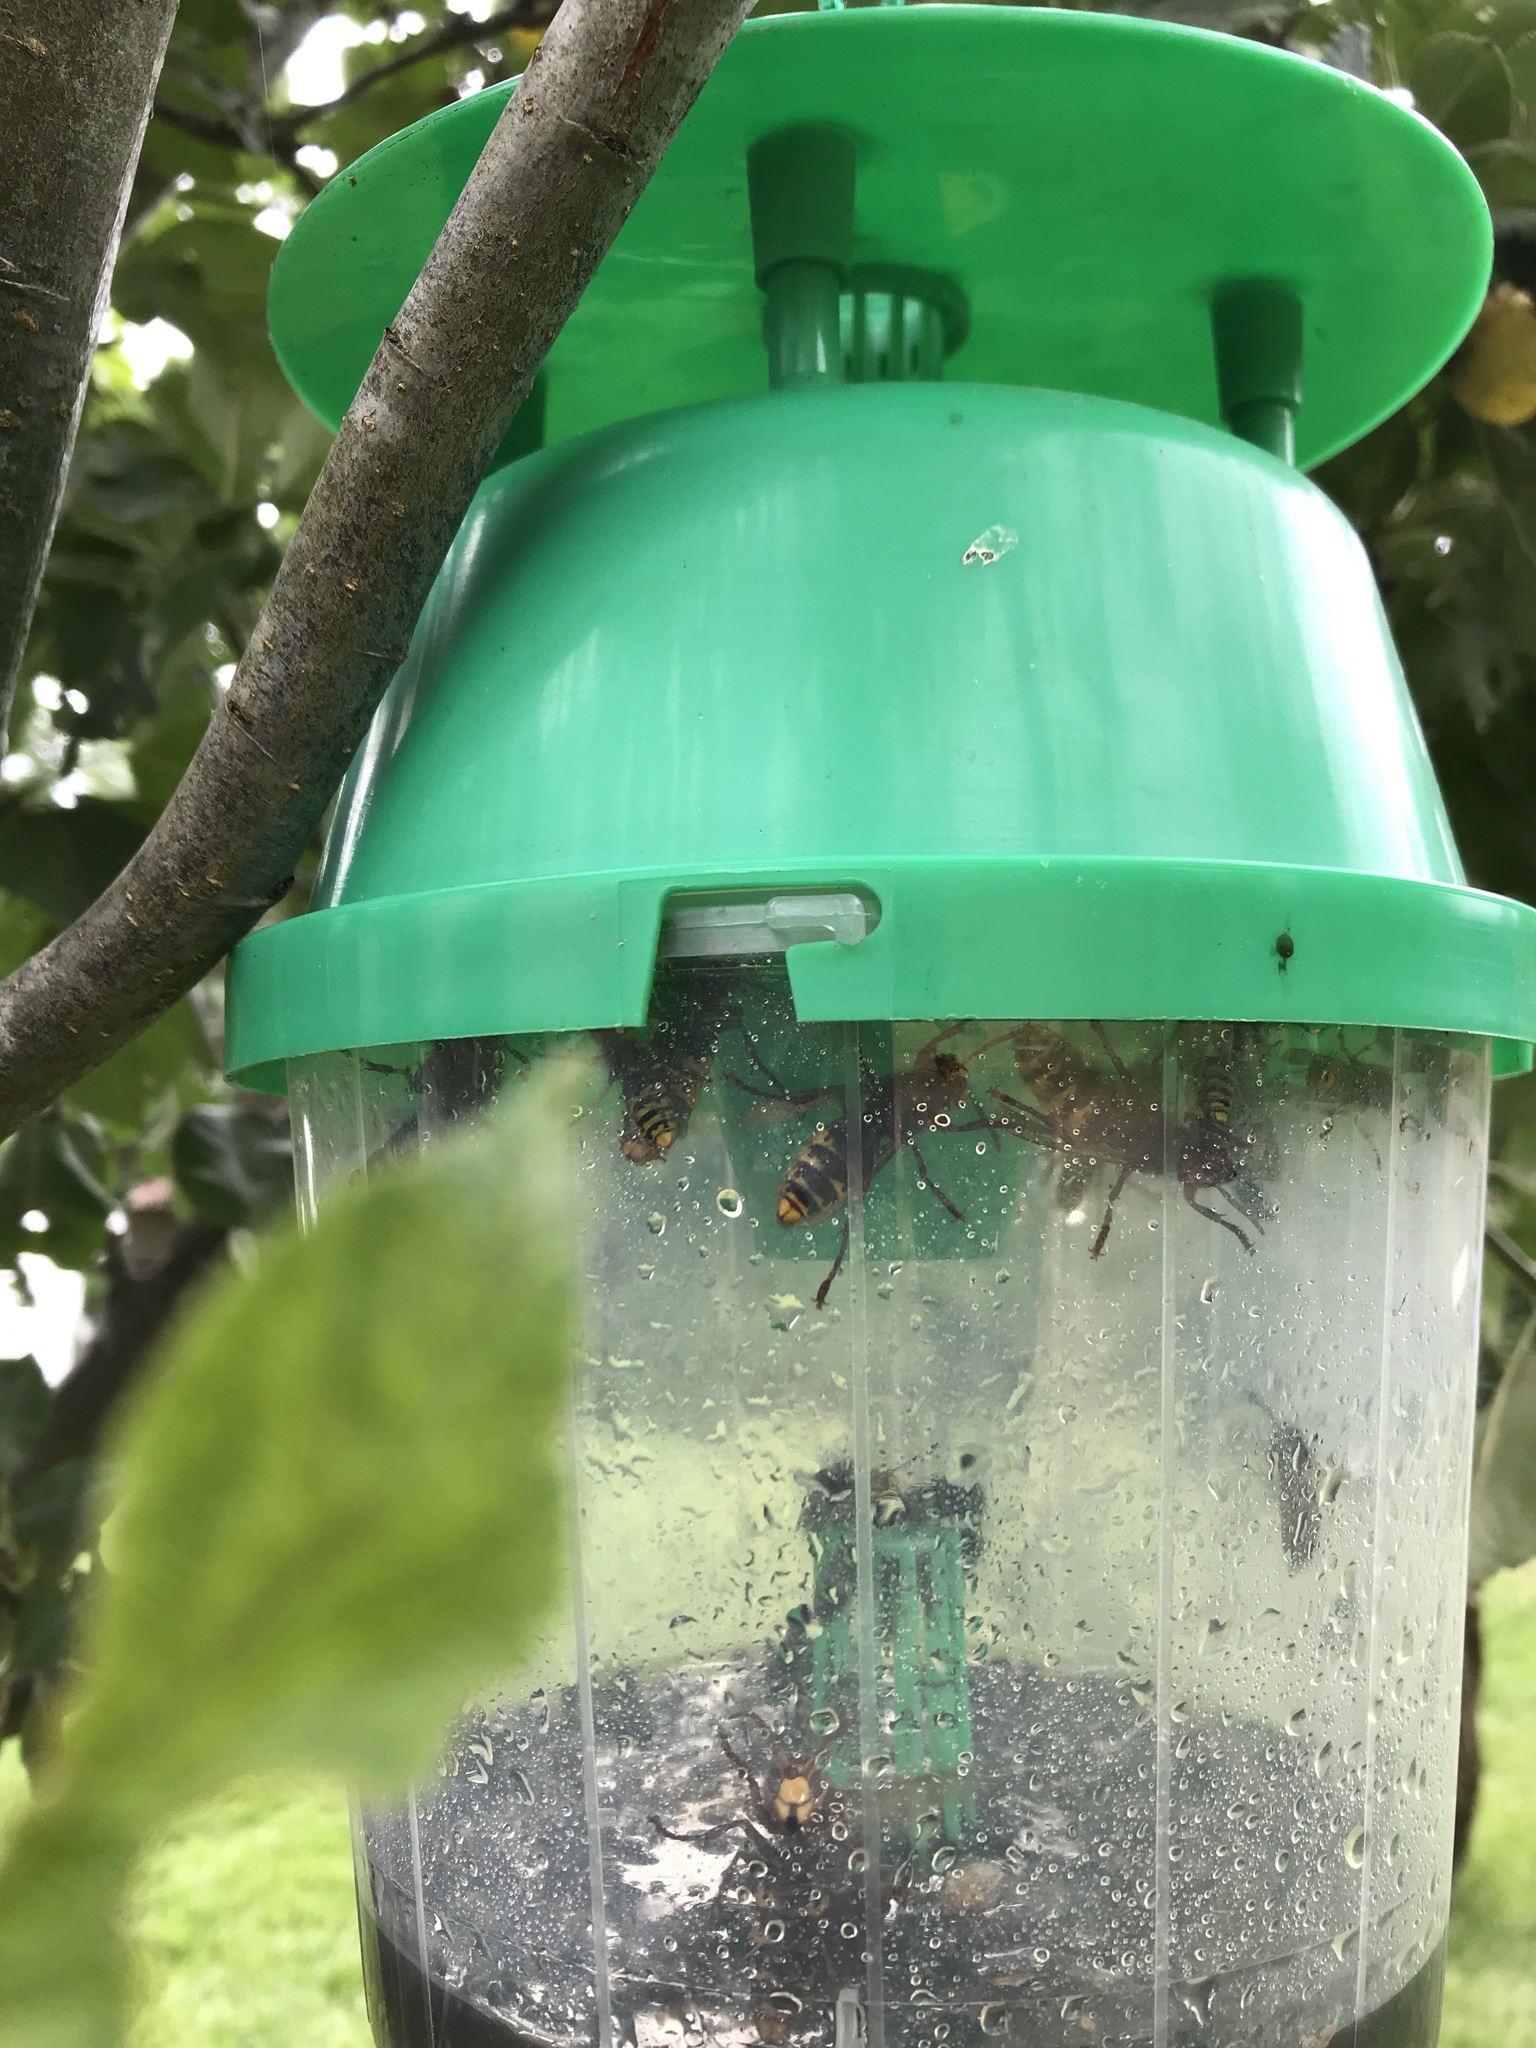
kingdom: Animalia
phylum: Arthropoda
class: Insecta
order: Hymenoptera
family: Vespidae
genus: Vespa
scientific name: Vespa crabro
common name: Hornet
